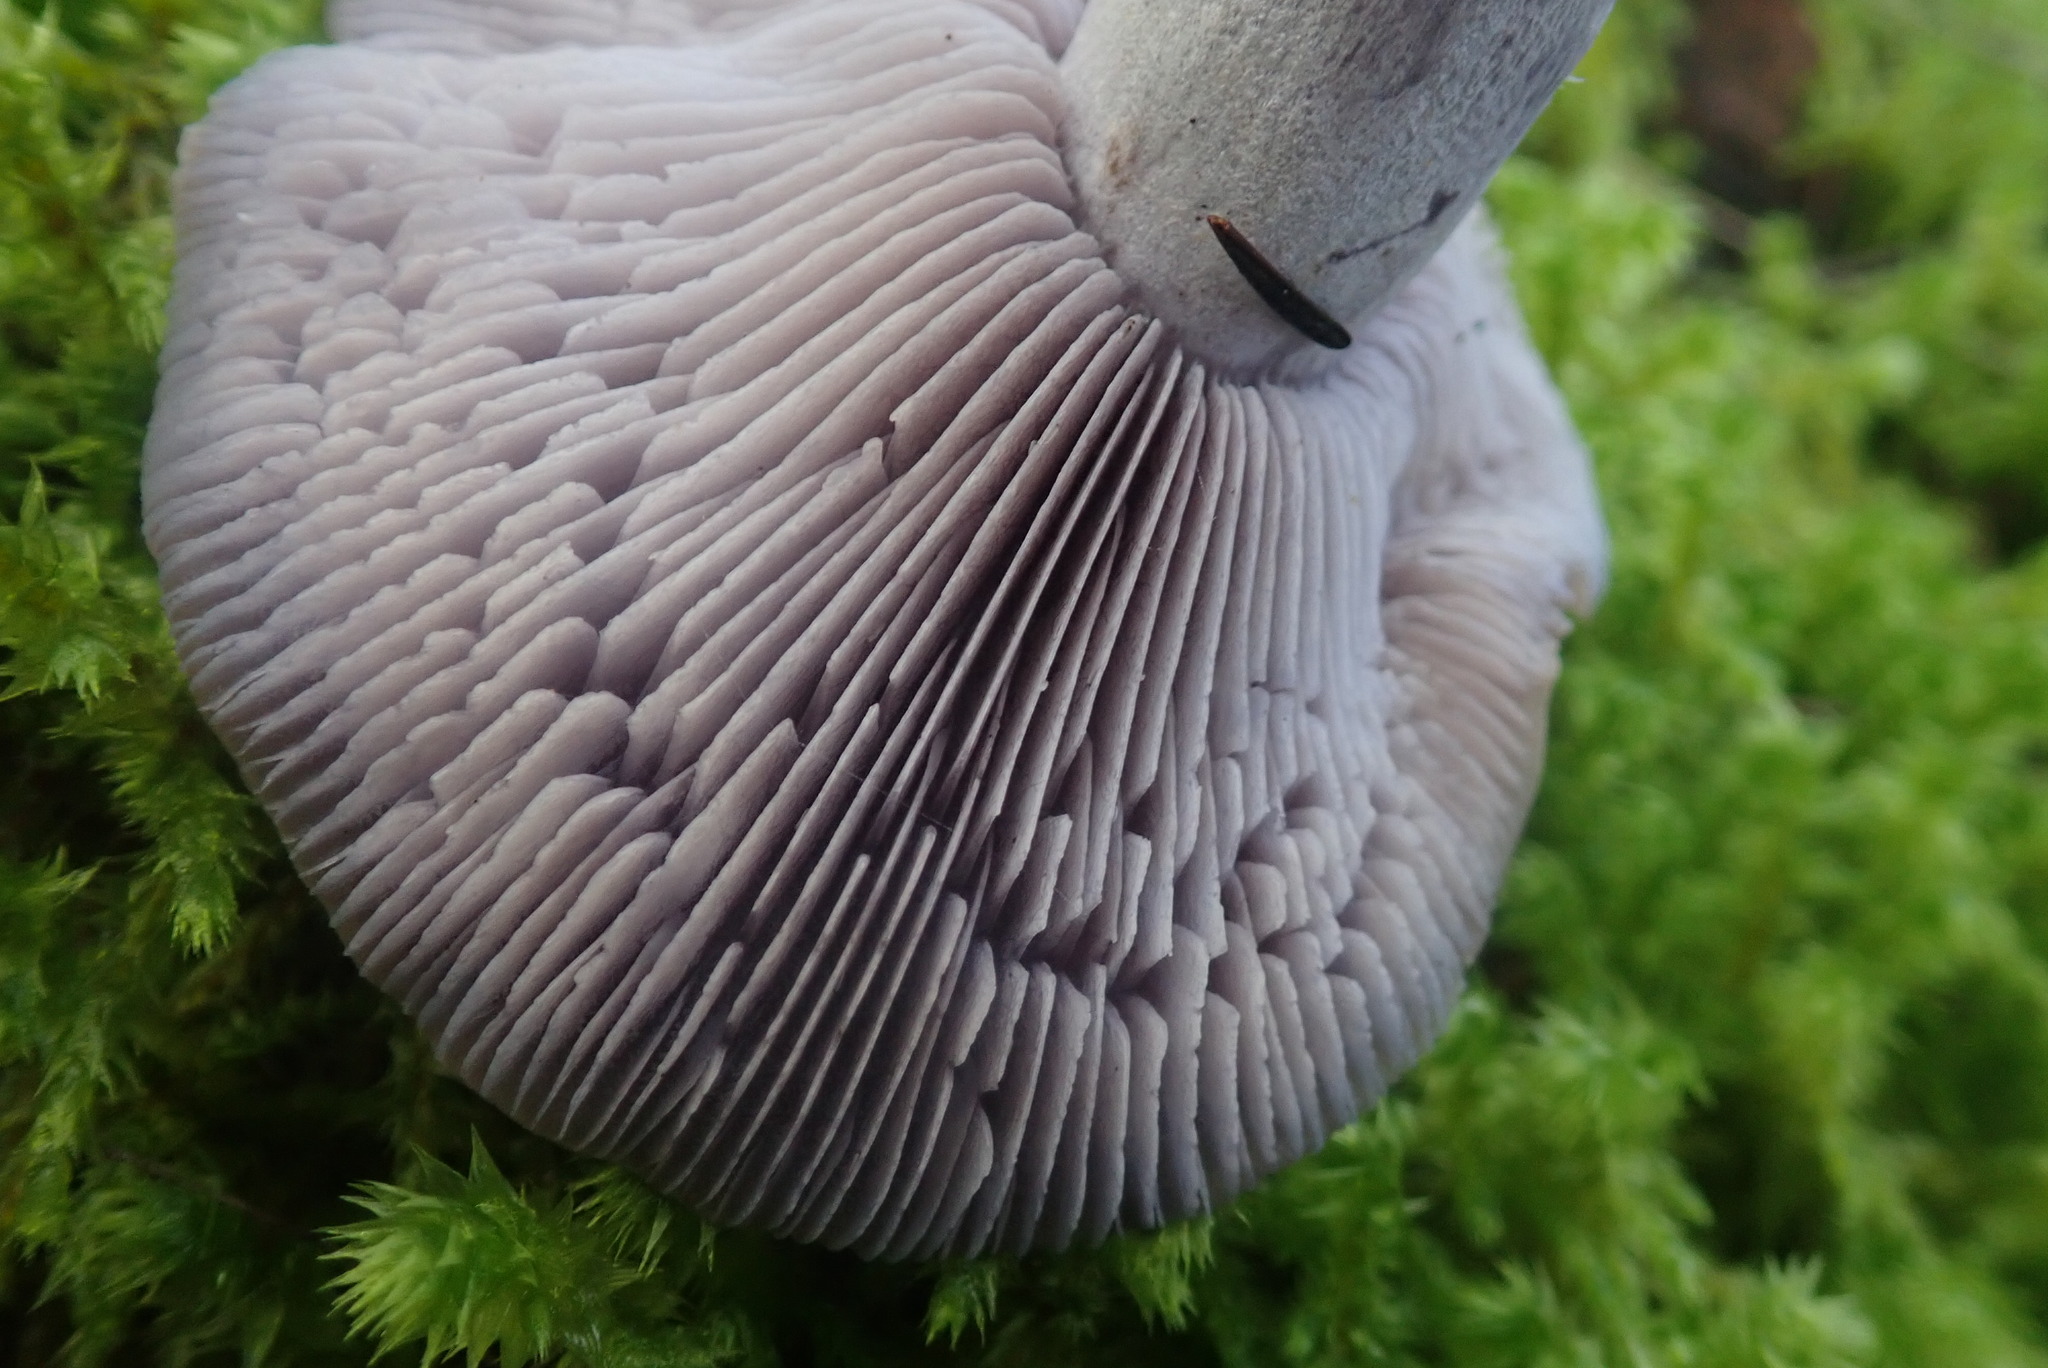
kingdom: Fungi
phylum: Basidiomycota
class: Agaricomycetes
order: Agaricales
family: Tricholomataceae
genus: Collybia
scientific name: Collybia
